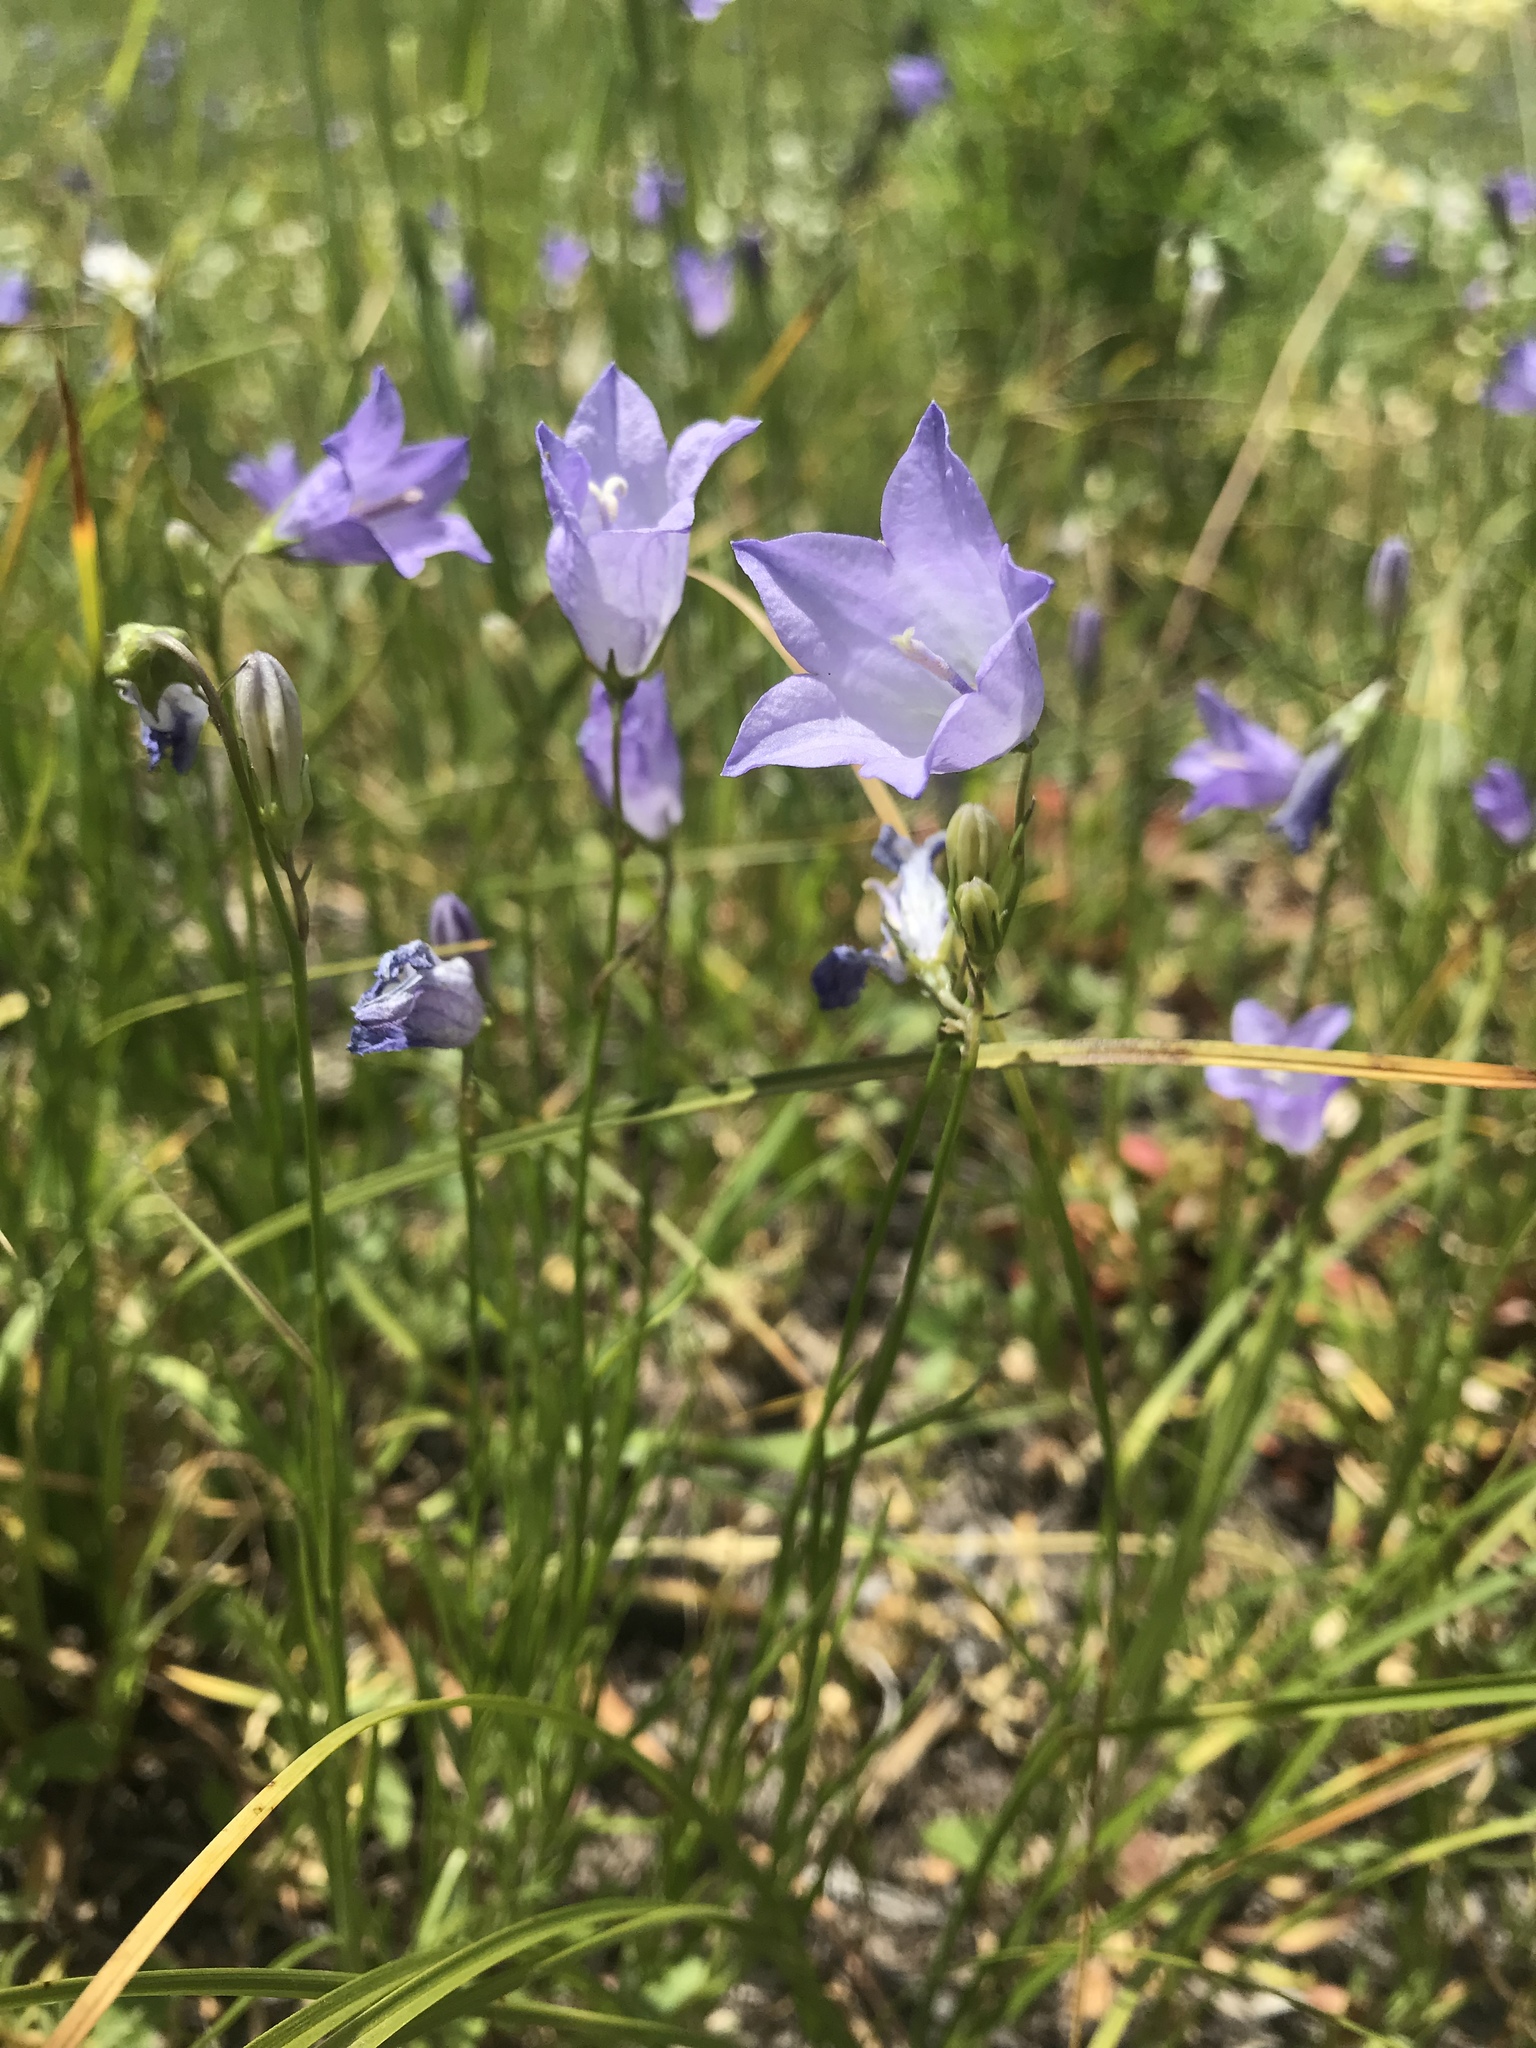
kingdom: Plantae
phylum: Tracheophyta
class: Magnoliopsida
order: Asterales
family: Campanulaceae
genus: Campanula
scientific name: Campanula petiolata
